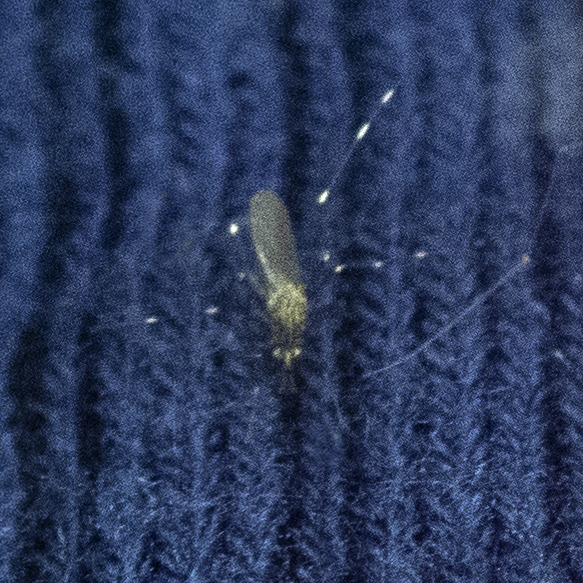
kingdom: Animalia
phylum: Arthropoda
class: Insecta
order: Diptera
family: Culicidae
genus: Aedes
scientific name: Aedes japonicus
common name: Asian bush mosquito
